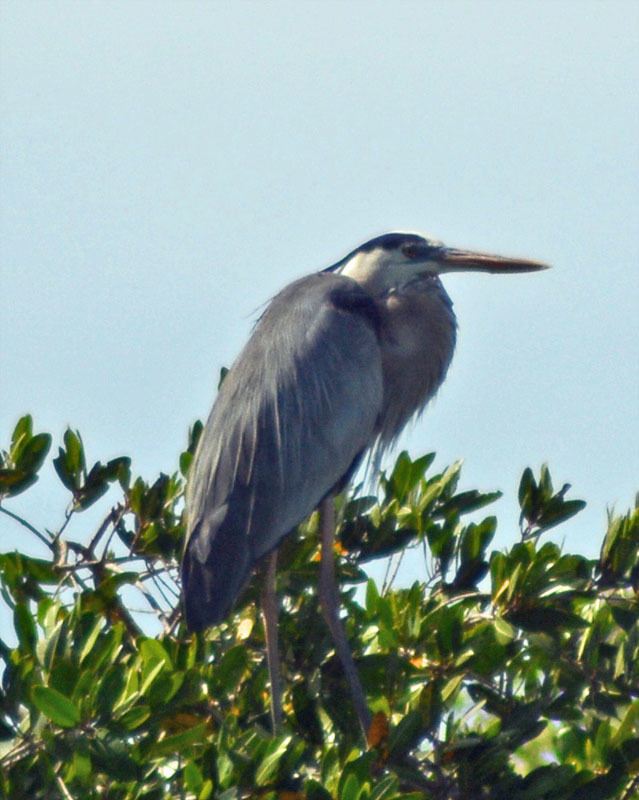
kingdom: Animalia
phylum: Chordata
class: Aves
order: Pelecaniformes
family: Ardeidae
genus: Ardea
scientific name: Ardea herodias
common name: Great blue heron
